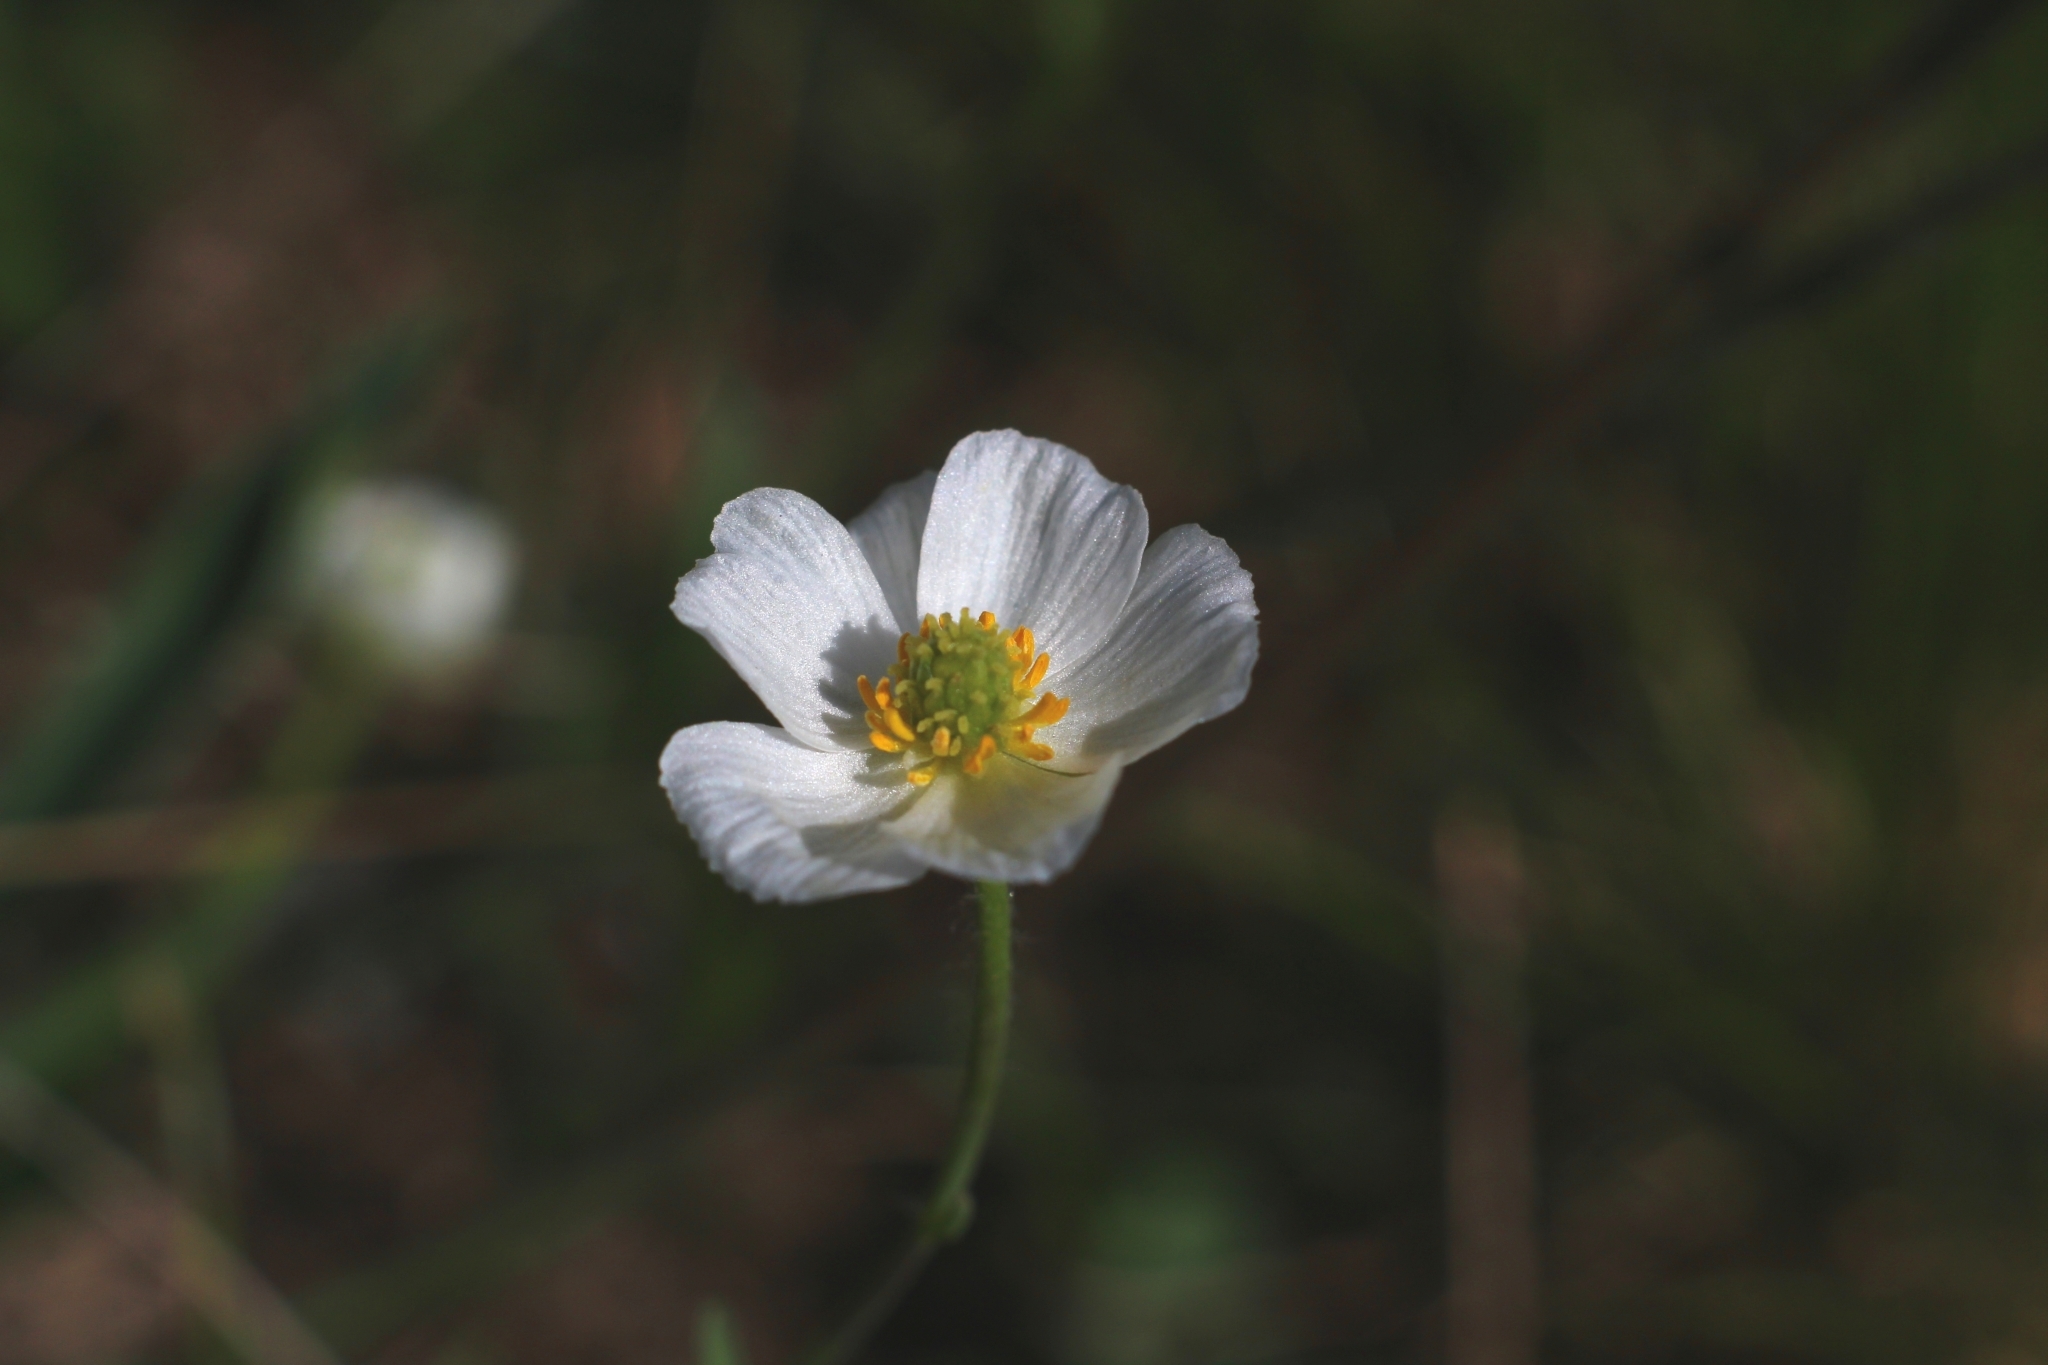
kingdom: Plantae
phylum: Tracheophyta
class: Magnoliopsida
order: Ranunculales
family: Ranunculaceae
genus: Ranunculus
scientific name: Ranunculus kuepferi
